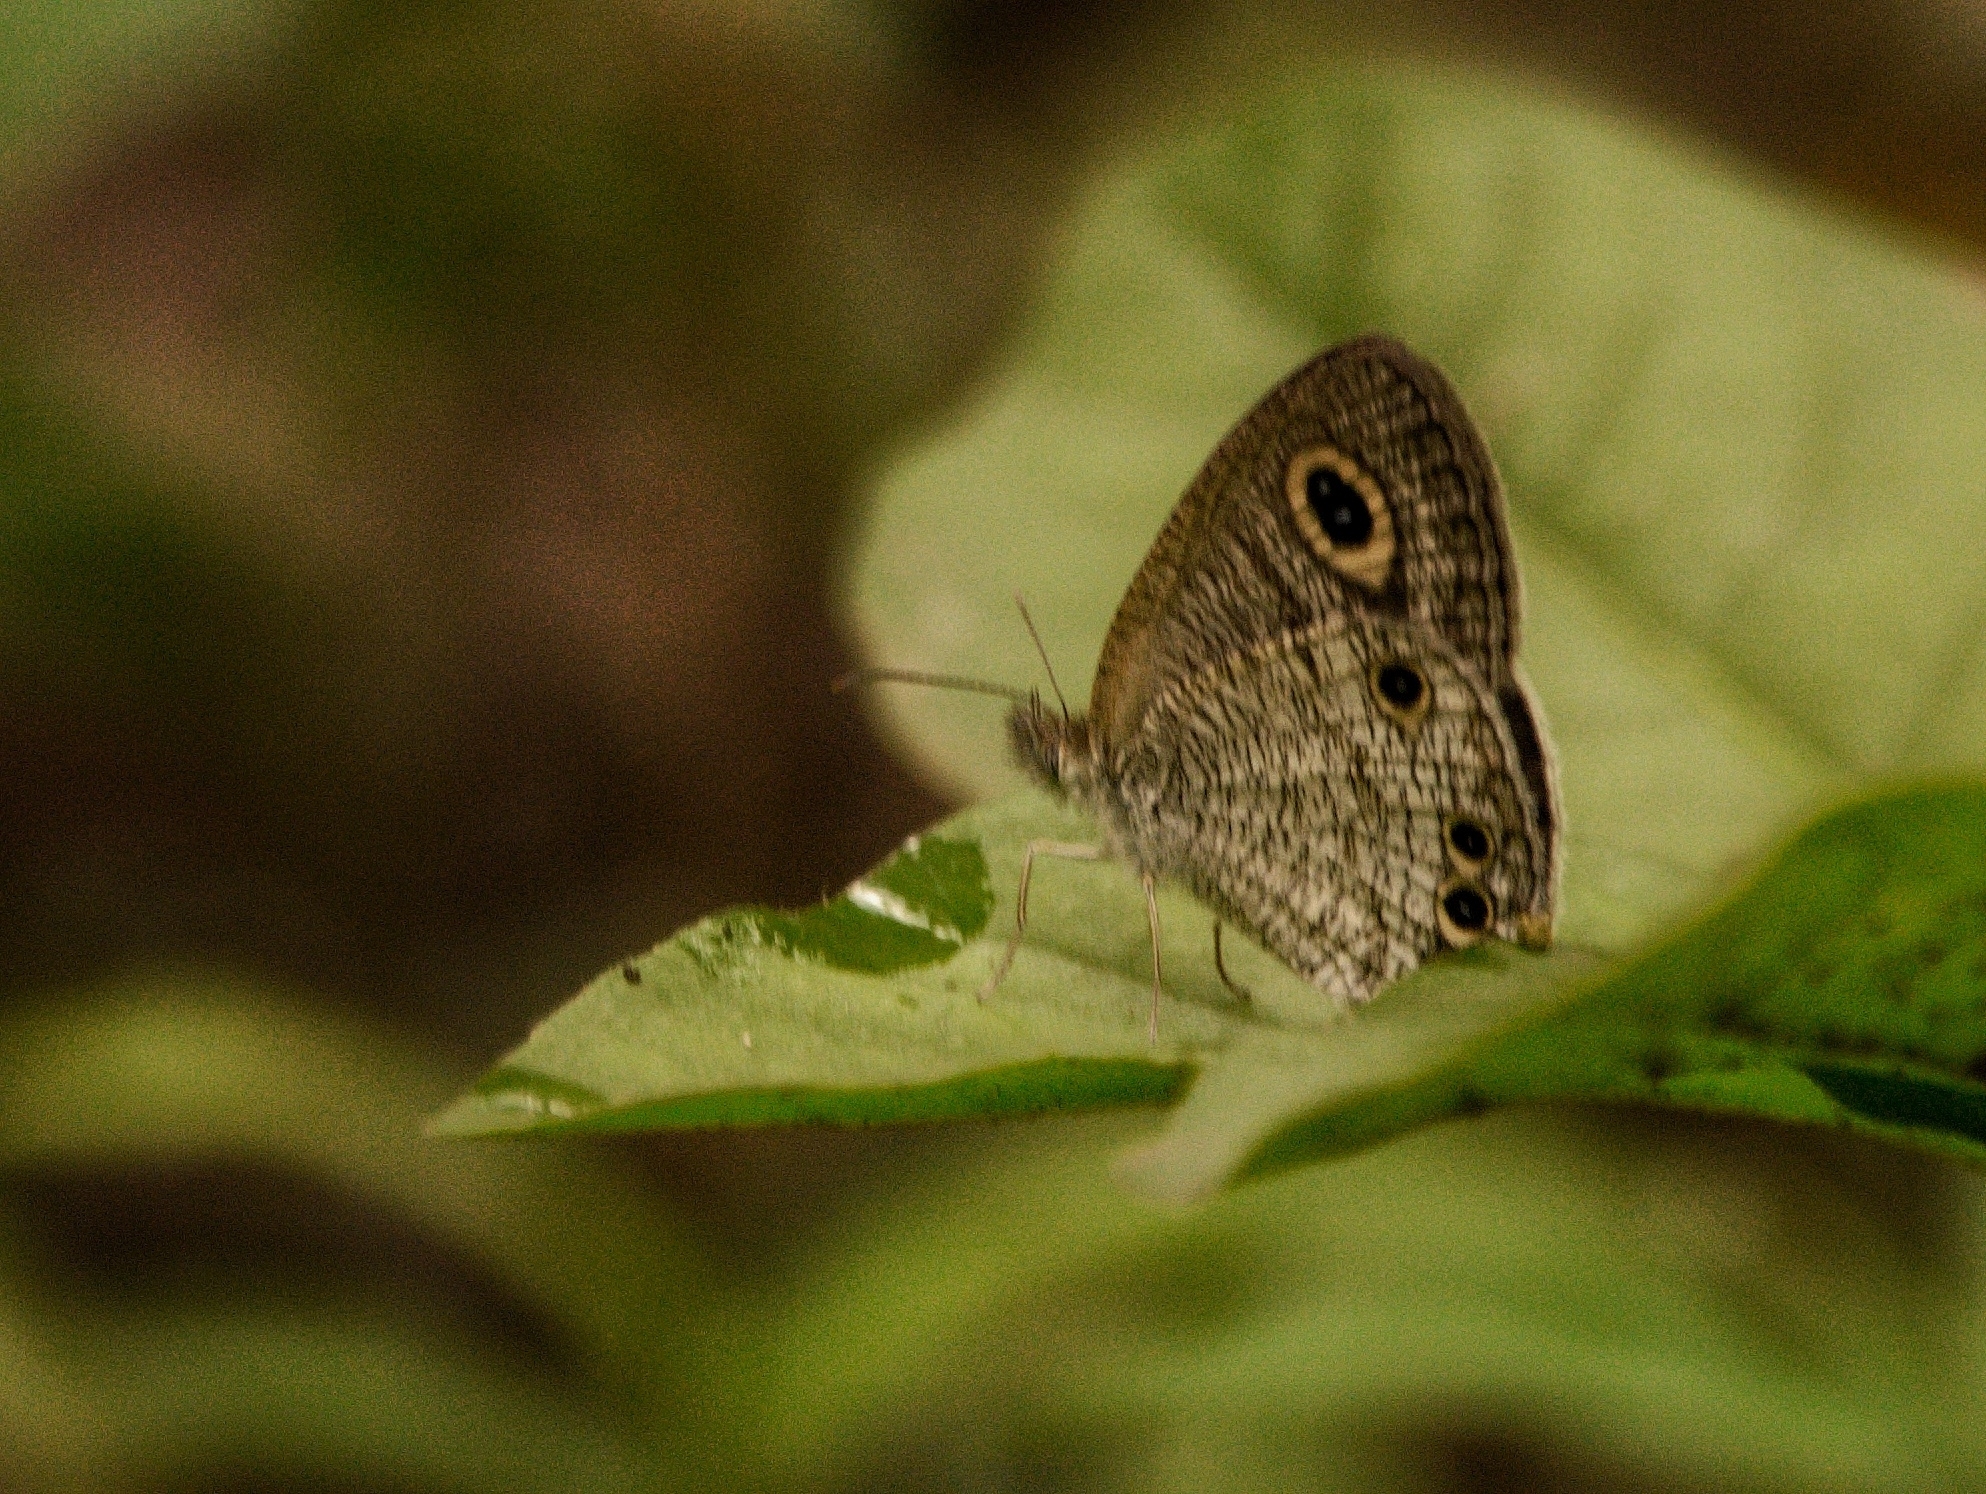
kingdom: Animalia
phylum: Arthropoda
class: Insecta
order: Lepidoptera
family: Nymphalidae
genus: Ypthima
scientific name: Ypthima huebneri
